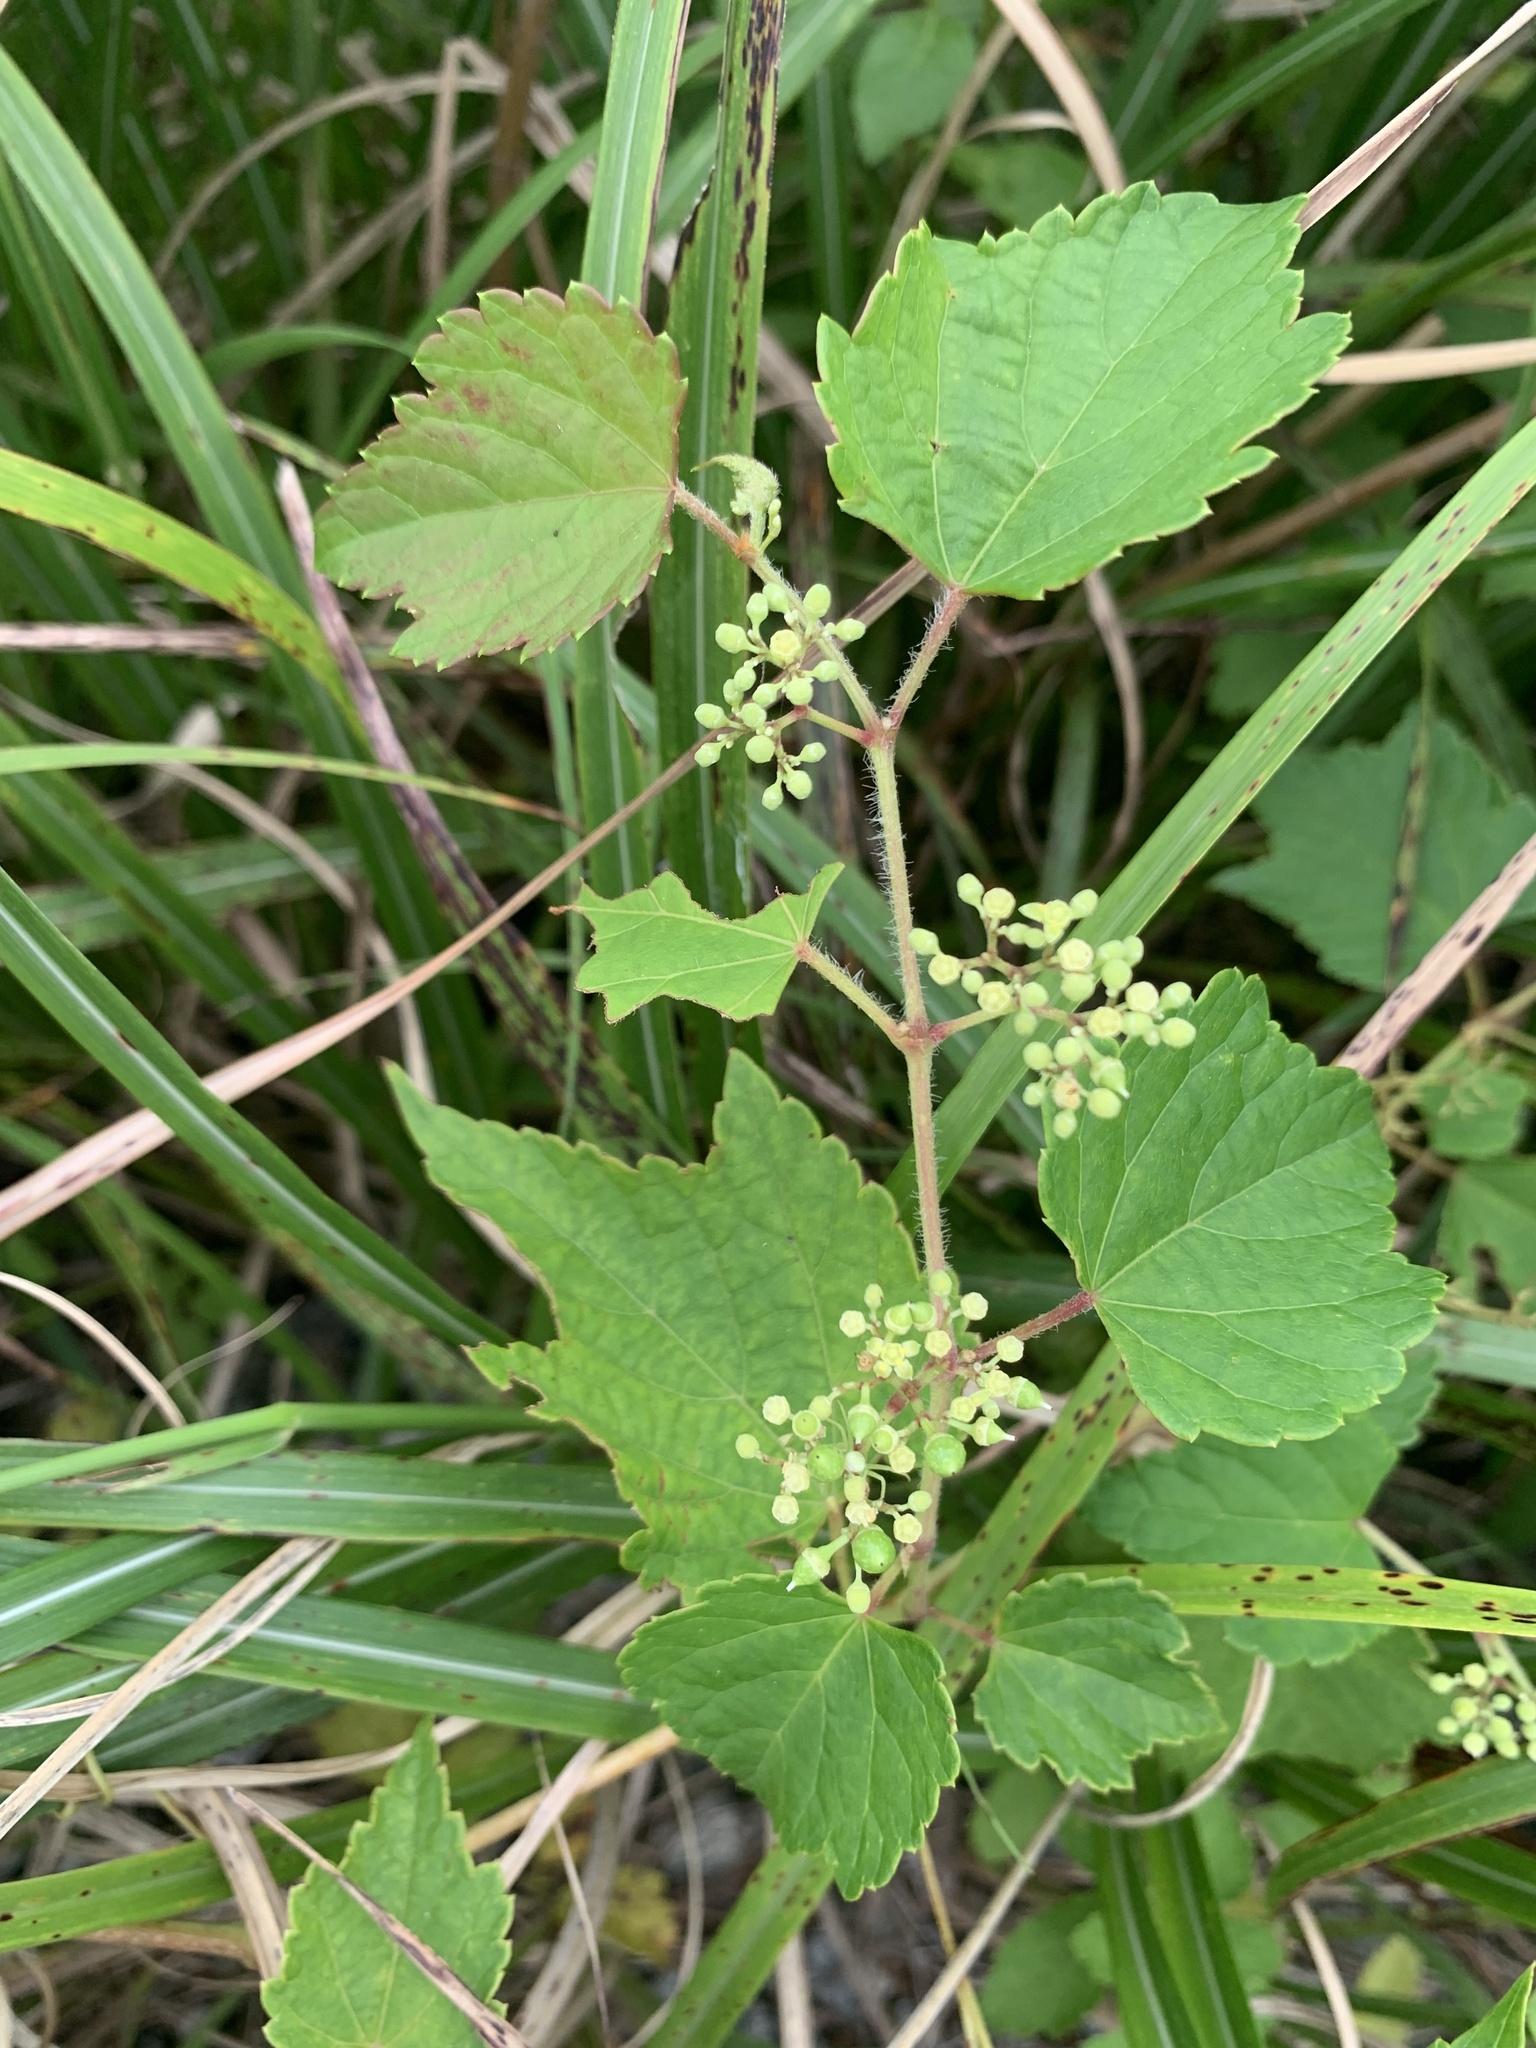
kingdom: Plantae
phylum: Tracheophyta
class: Magnoliopsida
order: Vitales
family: Vitaceae
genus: Ampelopsis
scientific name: Ampelopsis glandulosa
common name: Amur peppervine
